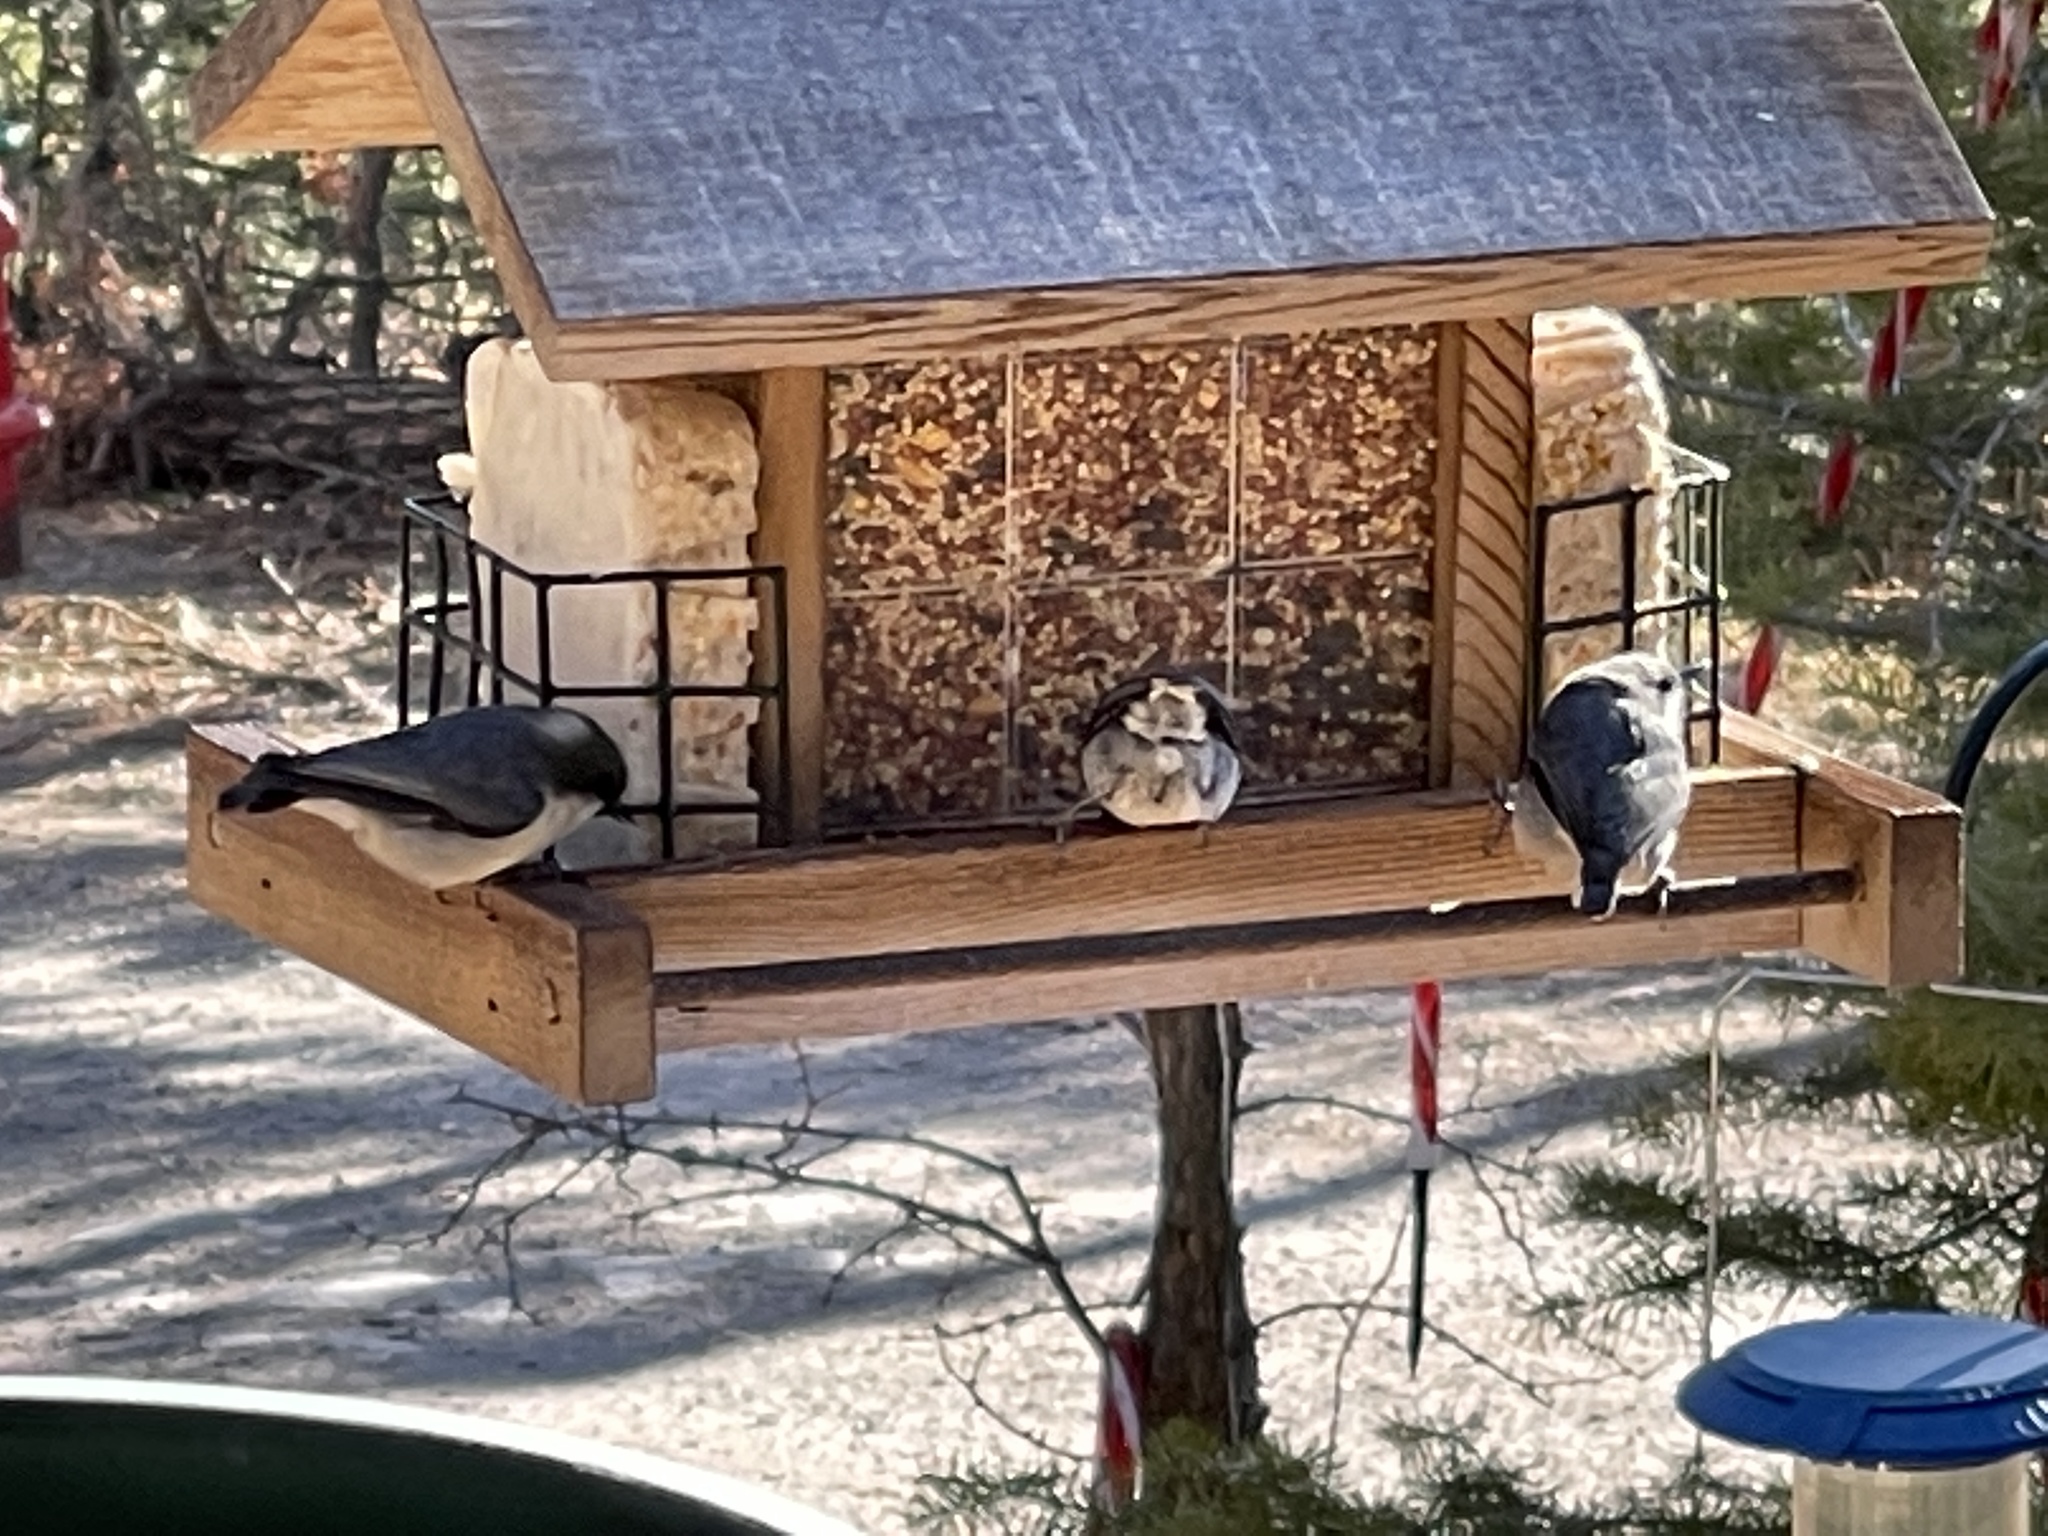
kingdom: Animalia
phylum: Chordata
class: Aves
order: Passeriformes
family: Sittidae
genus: Sitta
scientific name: Sitta pygmaea
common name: Pygmy nuthatch
